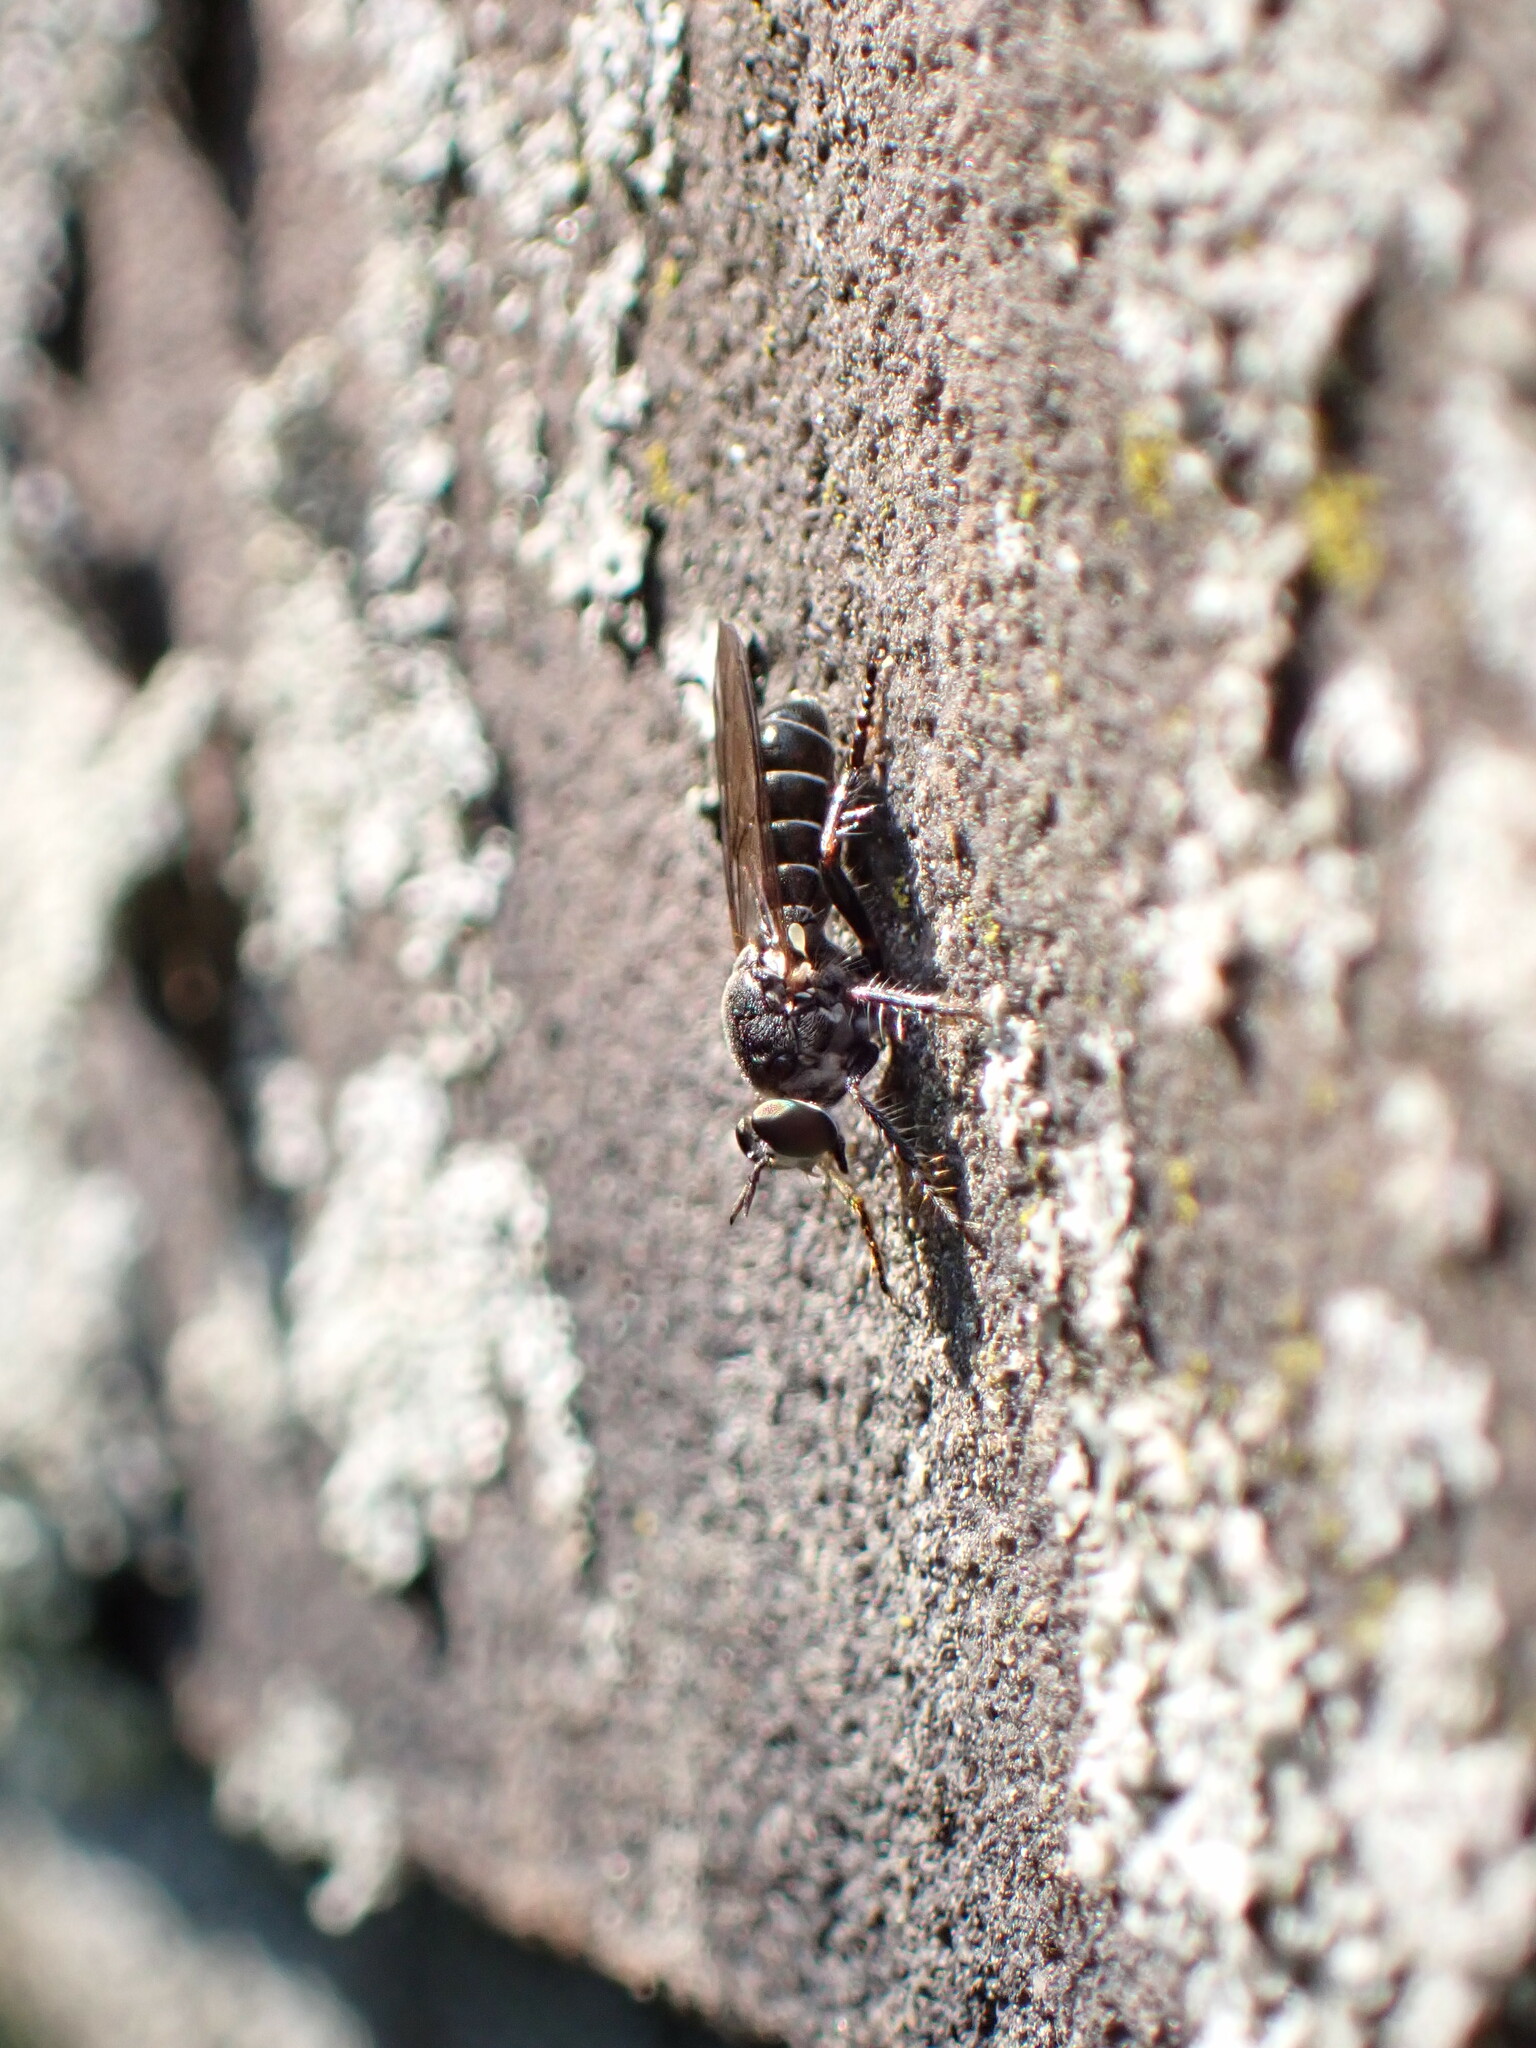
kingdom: Animalia
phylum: Arthropoda
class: Insecta
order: Diptera
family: Asilidae
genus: Atomosia
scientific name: Atomosia puella
